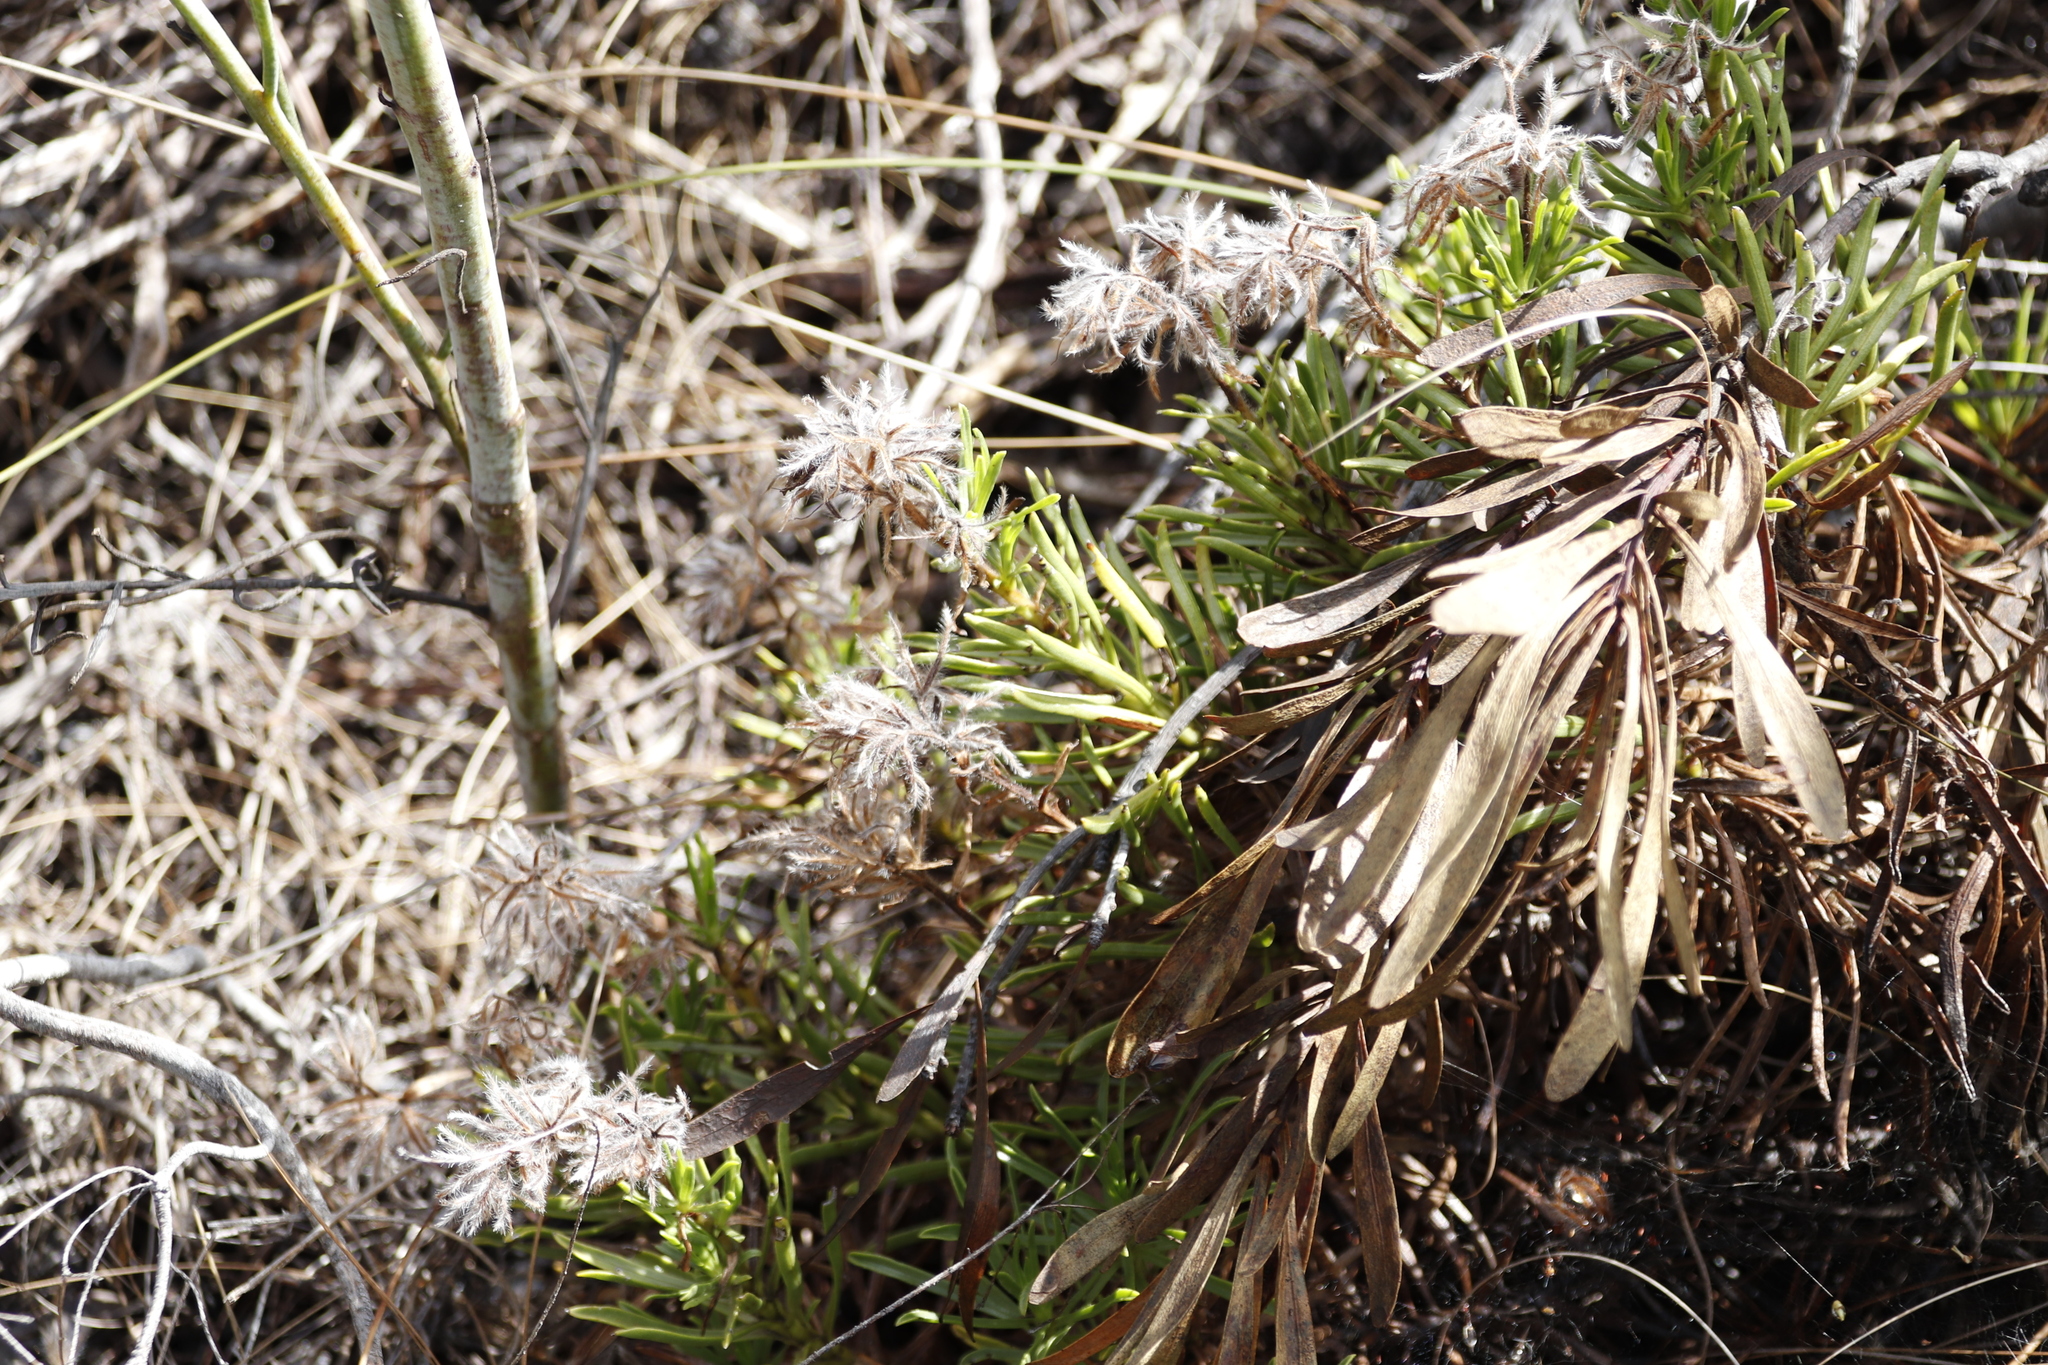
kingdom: Plantae
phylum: Tracheophyta
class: Magnoliopsida
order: Asterales
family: Asteraceae
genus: Helichrysum
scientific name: Helichrysum rutilans
